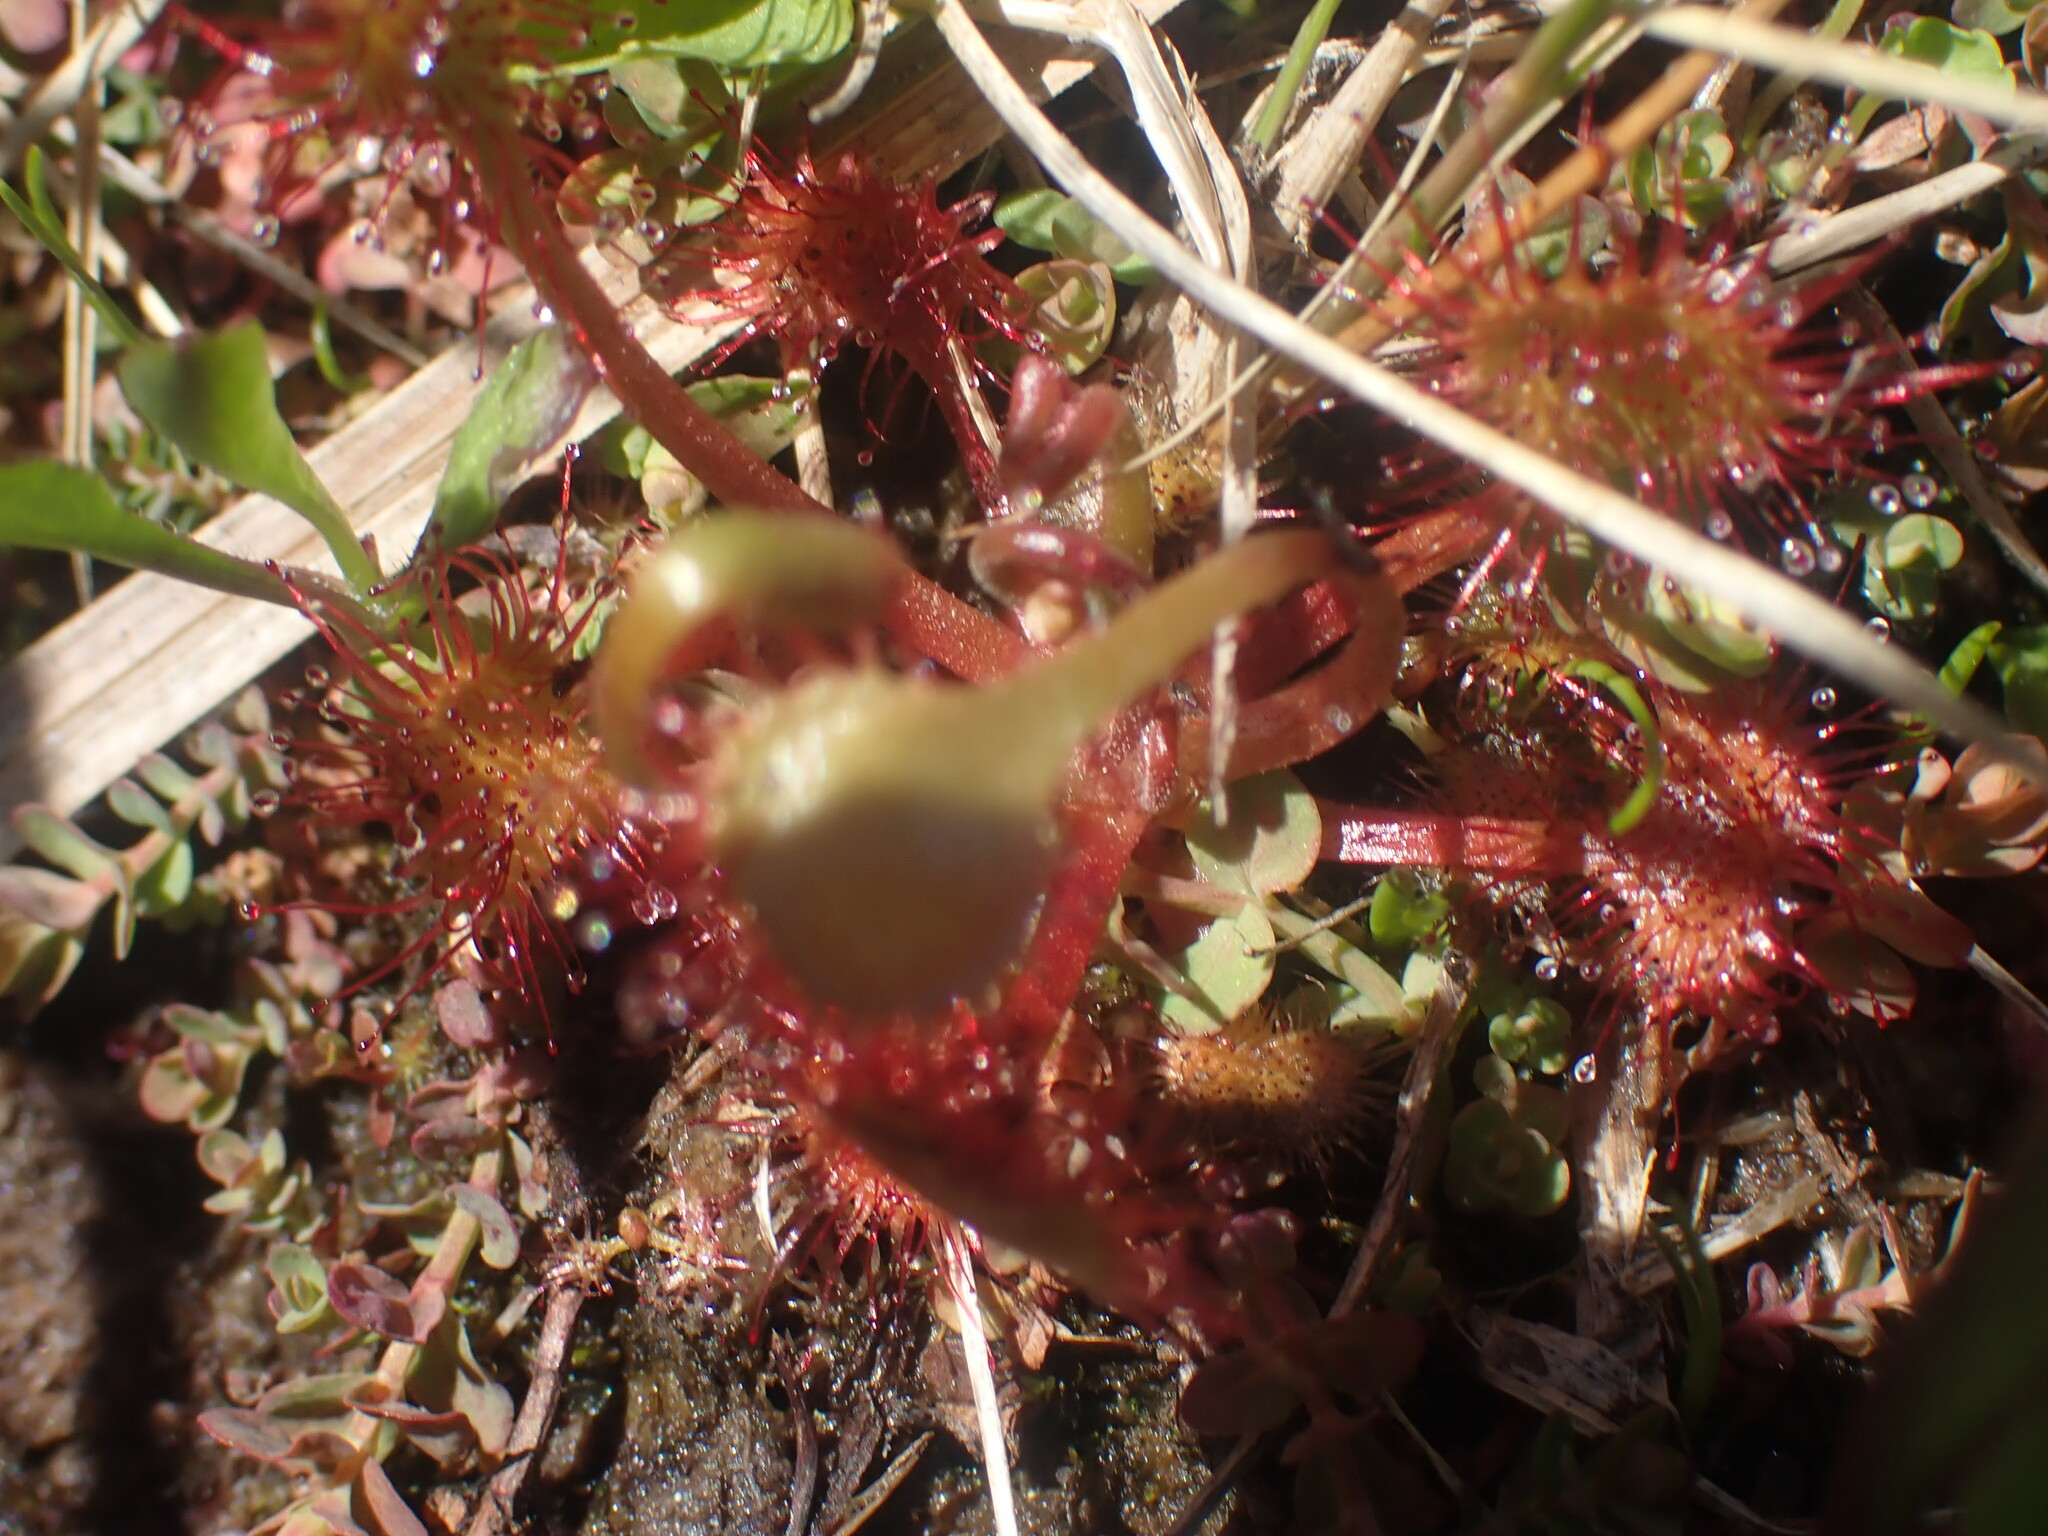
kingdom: Plantae
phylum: Tracheophyta
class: Magnoliopsida
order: Caryophyllales
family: Droseraceae
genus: Drosera
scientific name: Drosera rotundifolia
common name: Round-leaved sundew
